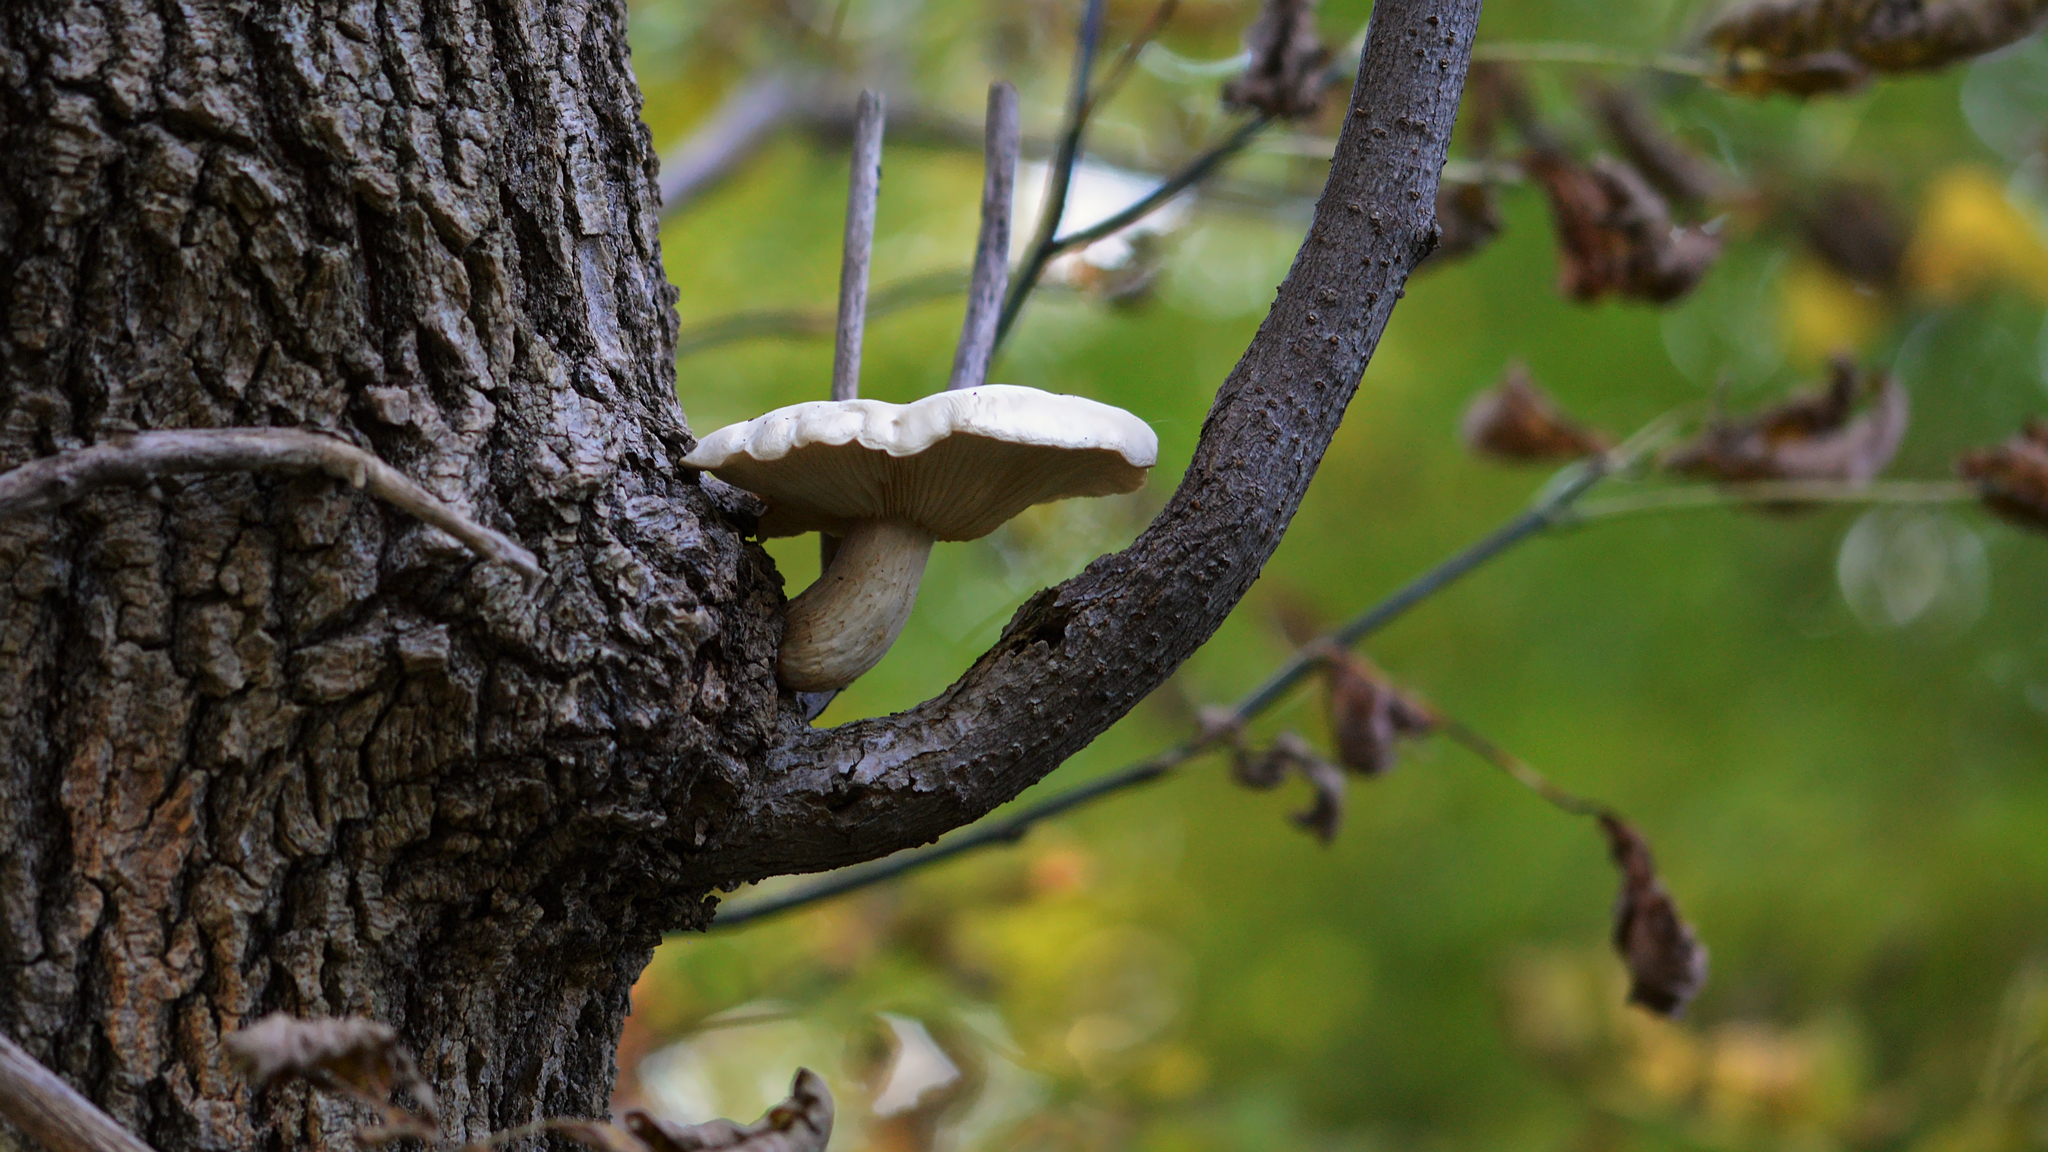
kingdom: Fungi
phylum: Basidiomycota
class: Agaricomycetes
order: Agaricales
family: Lyophyllaceae
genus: Hypsizygus
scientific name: Hypsizygus ulmarius
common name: Elm leech
